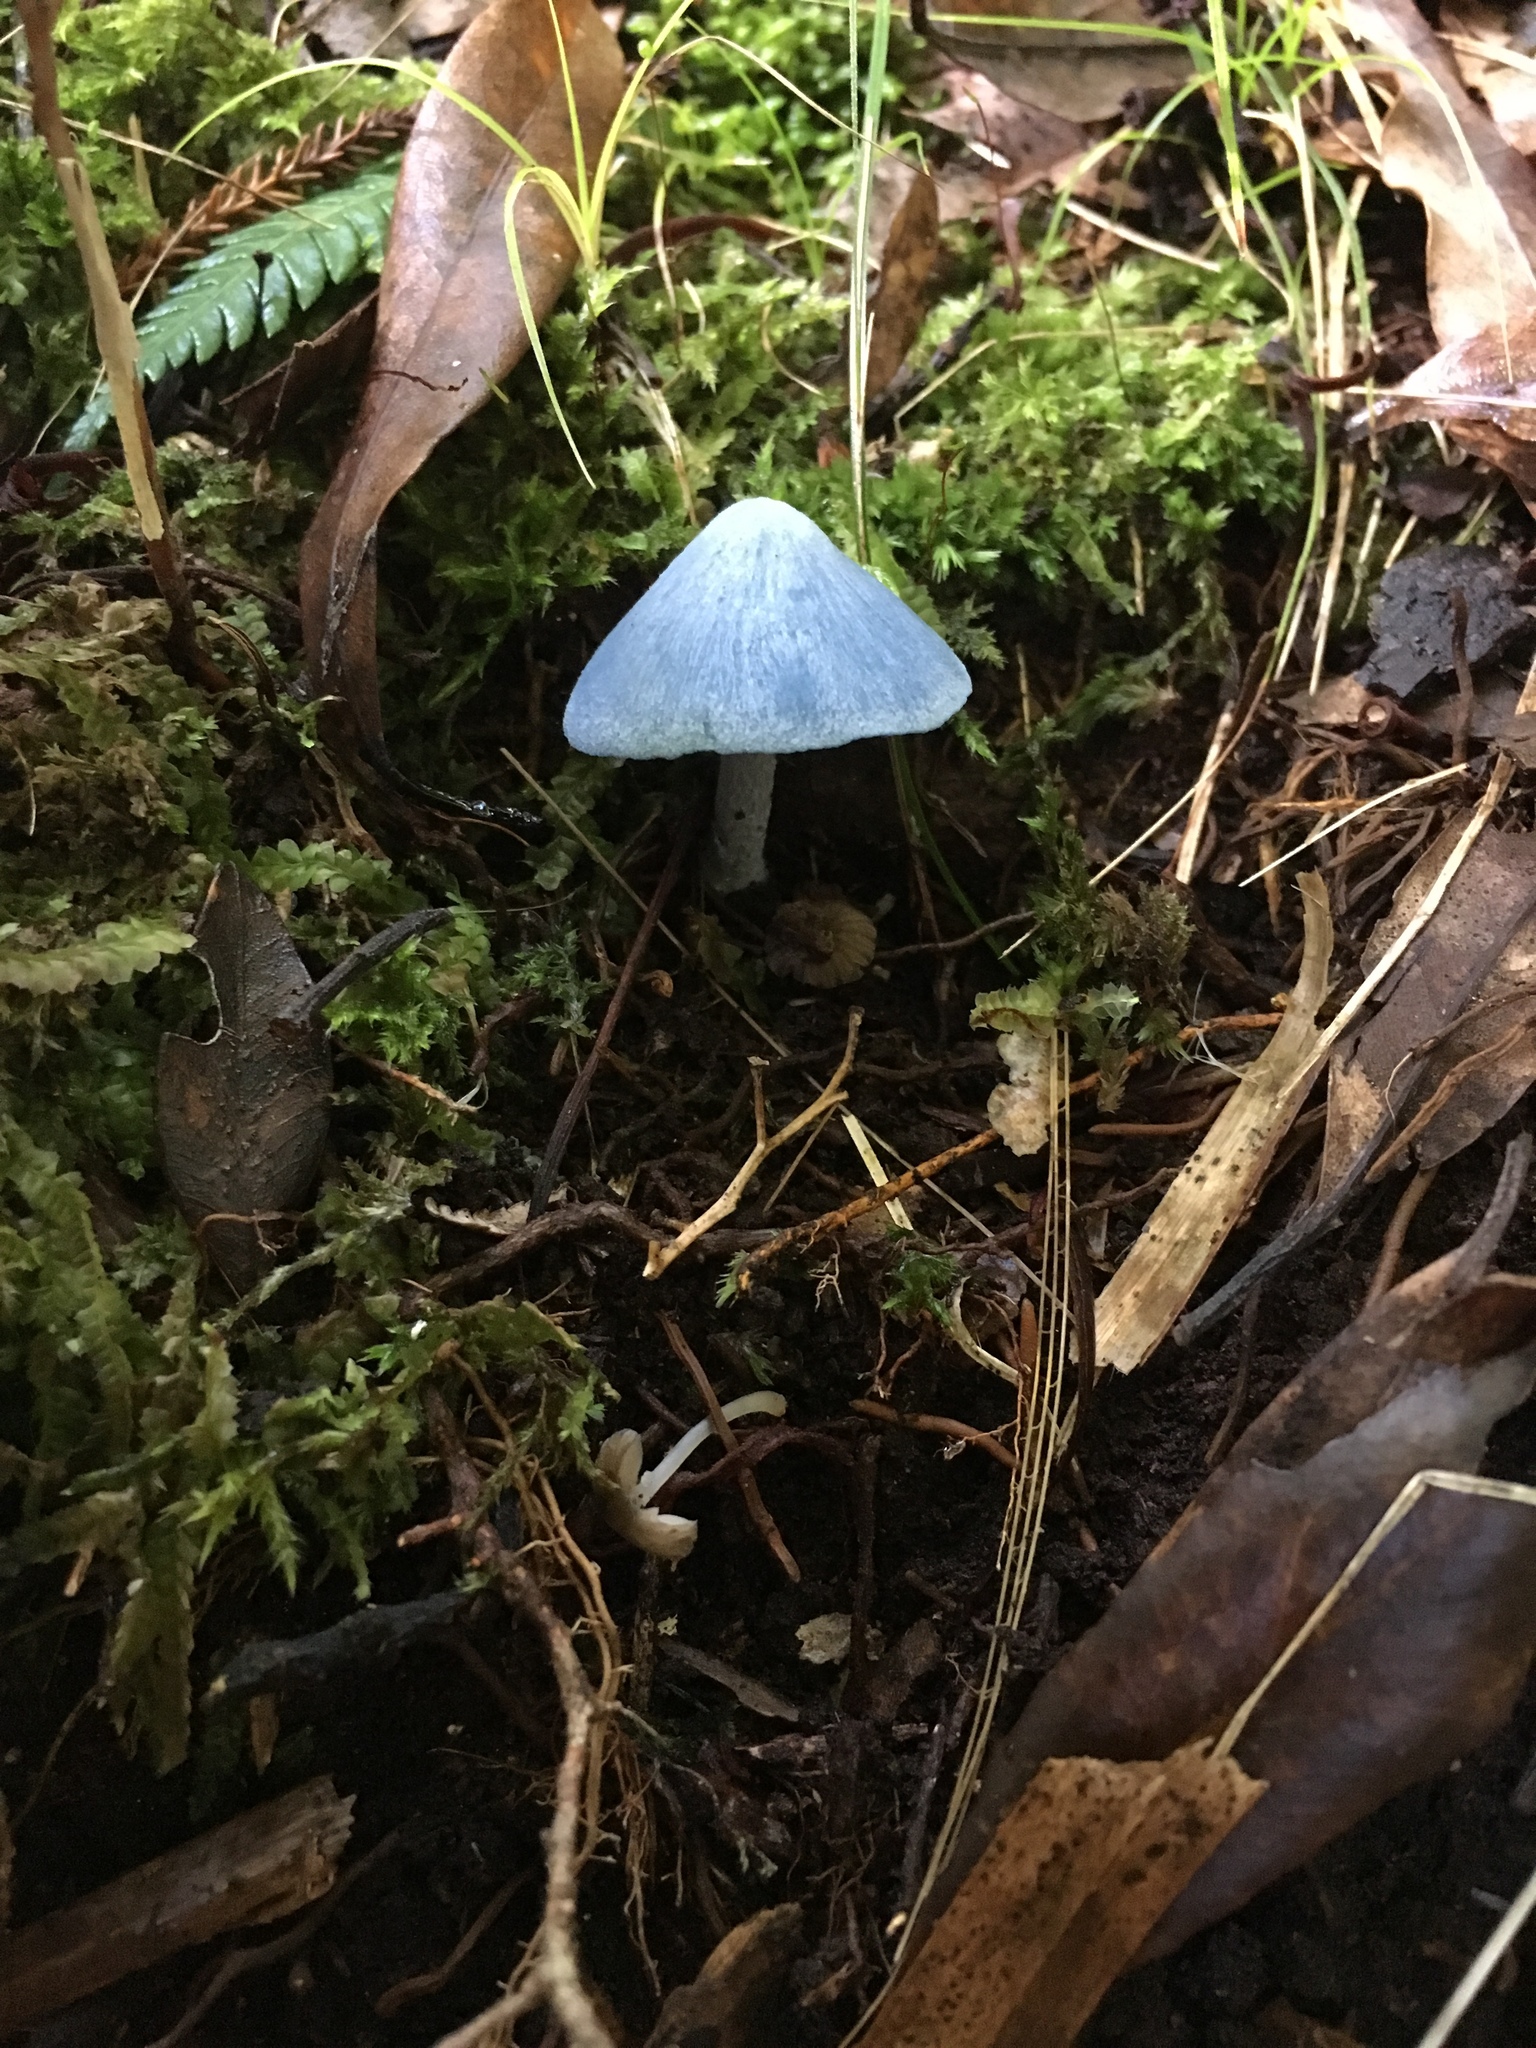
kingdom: Fungi
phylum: Basidiomycota
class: Agaricomycetes
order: Agaricales
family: Entolomataceae
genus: Entoloma
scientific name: Entoloma hochstetteri
